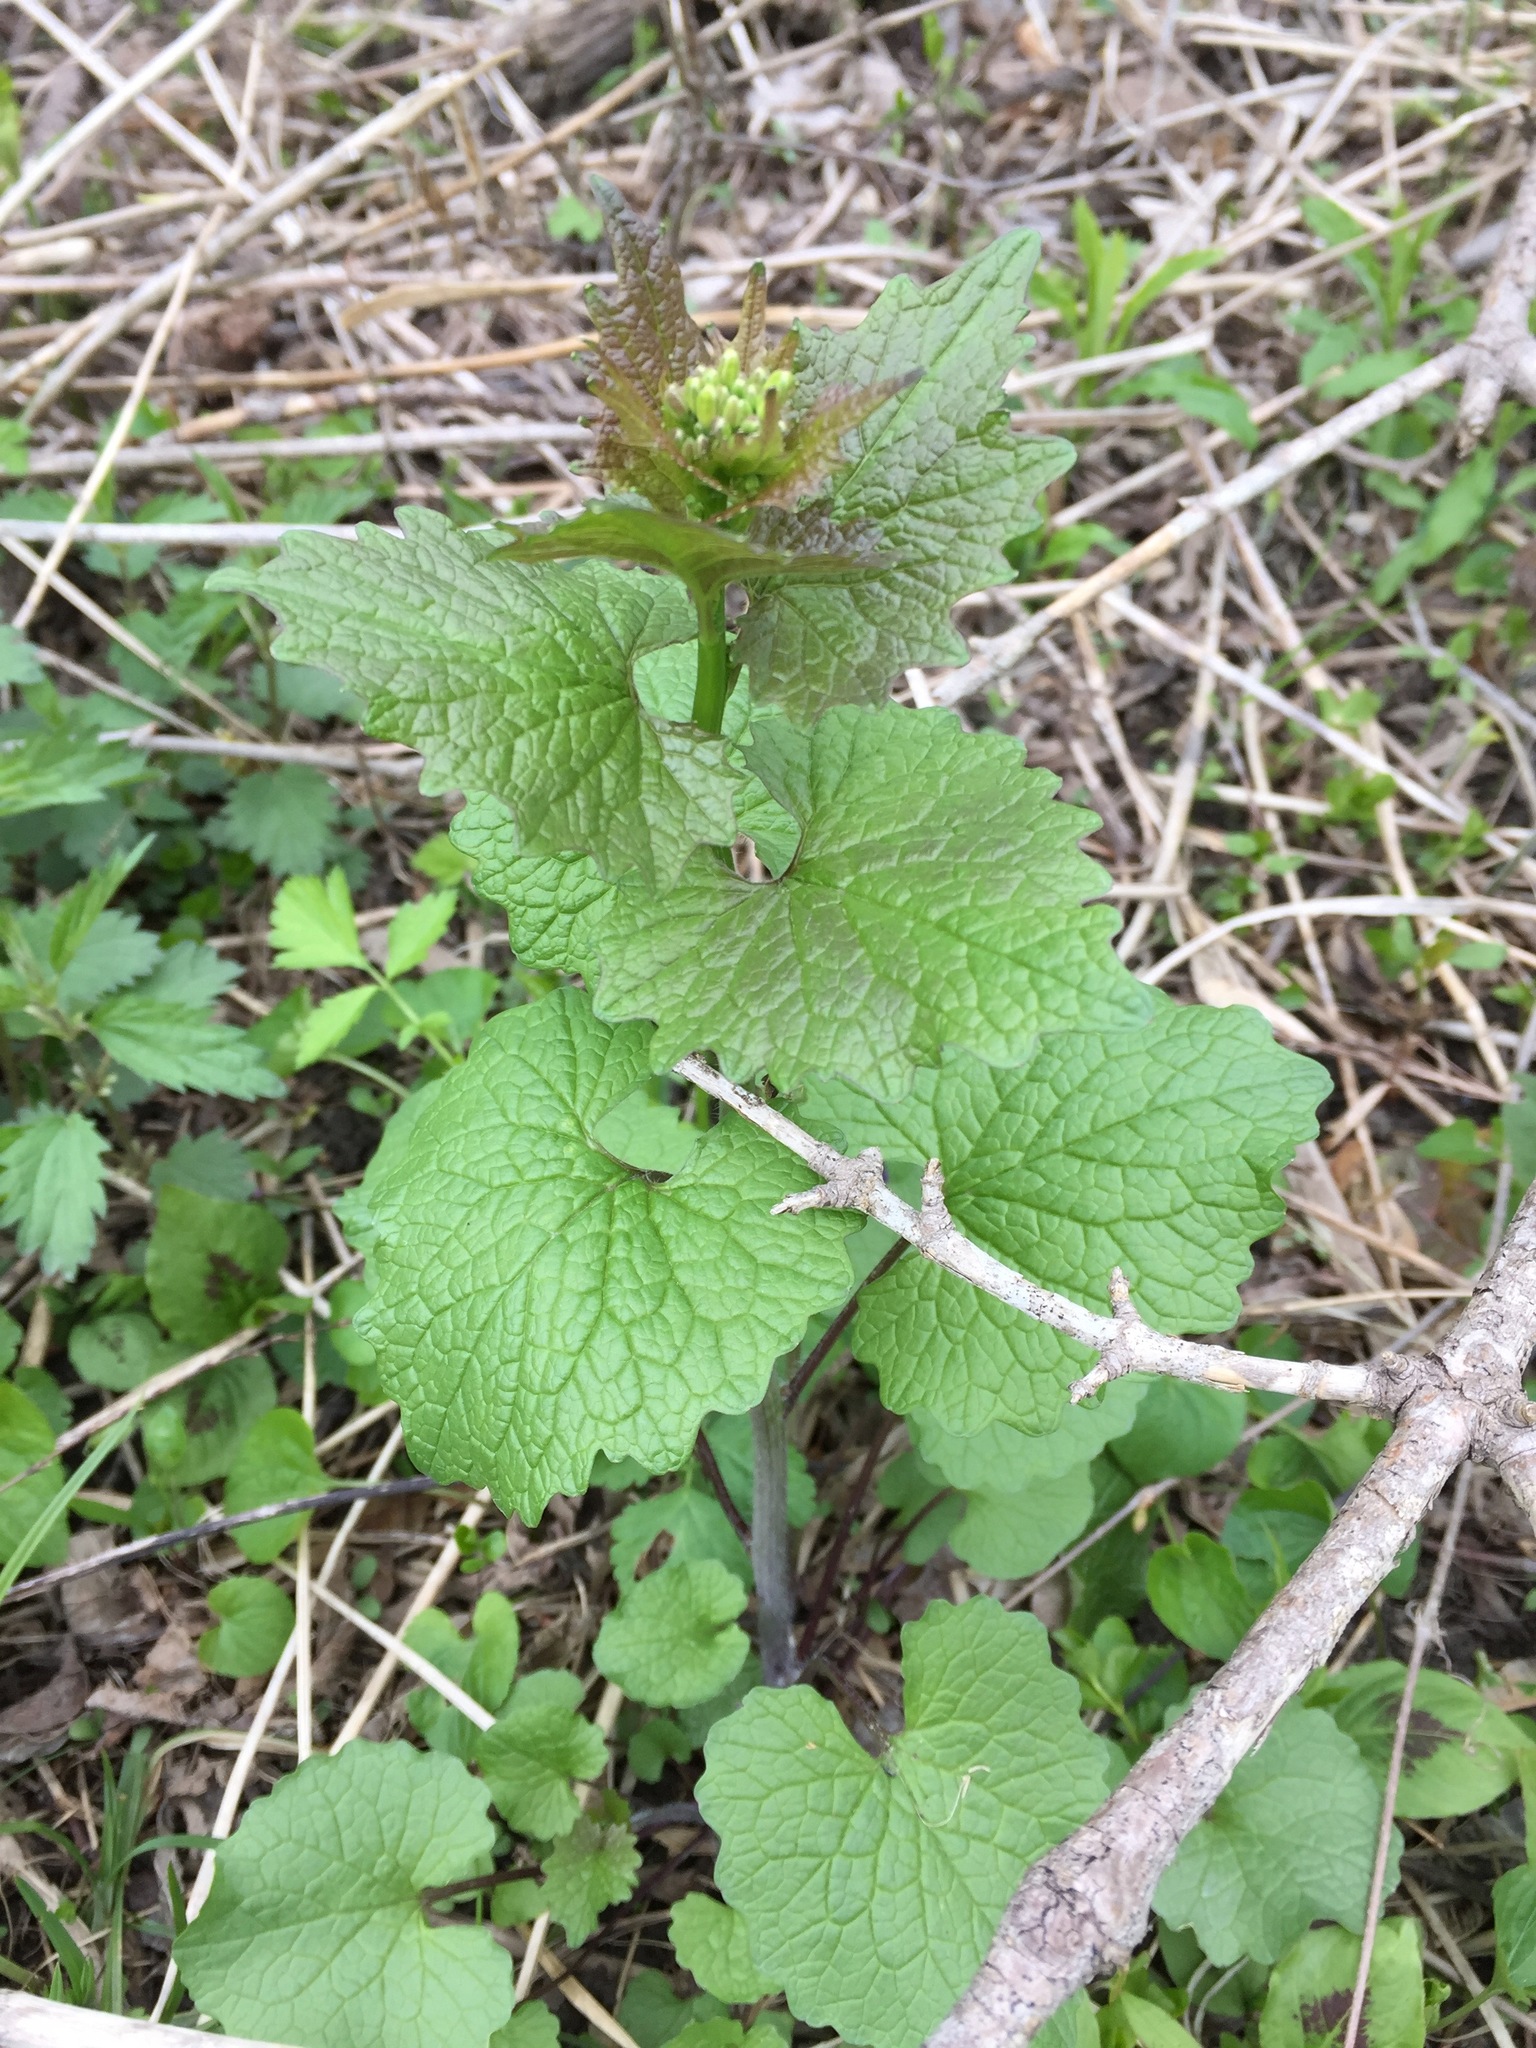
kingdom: Plantae
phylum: Tracheophyta
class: Magnoliopsida
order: Brassicales
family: Brassicaceae
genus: Alliaria
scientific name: Alliaria petiolata
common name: Garlic mustard
